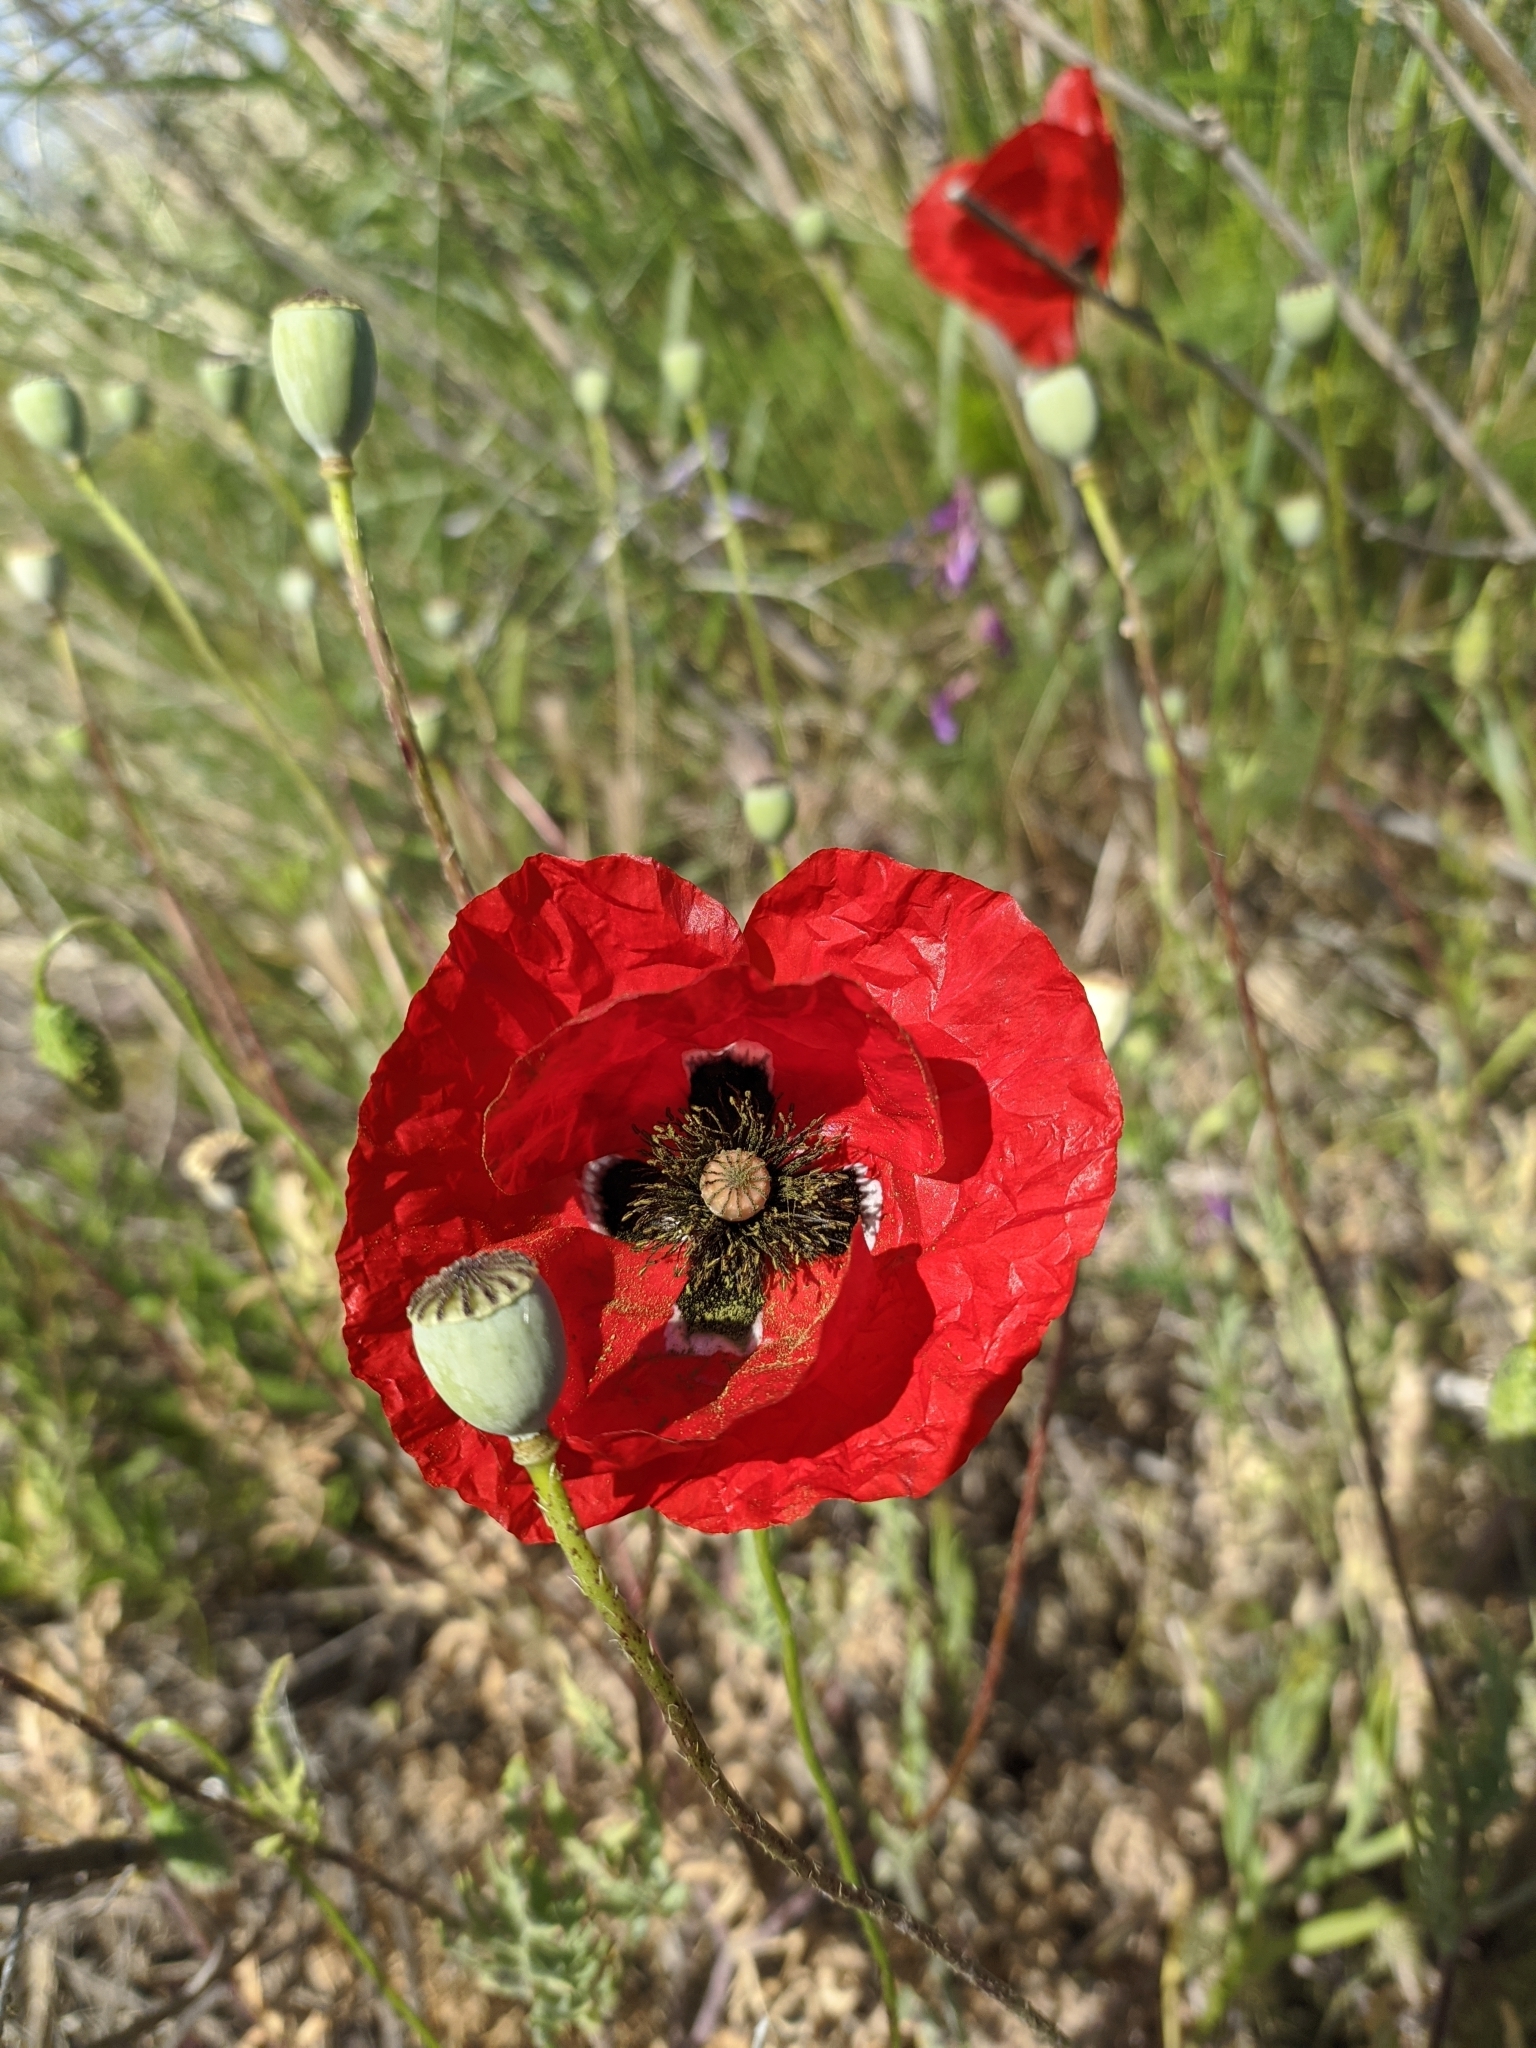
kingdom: Plantae
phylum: Tracheophyta
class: Magnoliopsida
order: Ranunculales
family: Papaveraceae
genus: Papaver
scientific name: Papaver rhoeas
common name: Corn poppy
